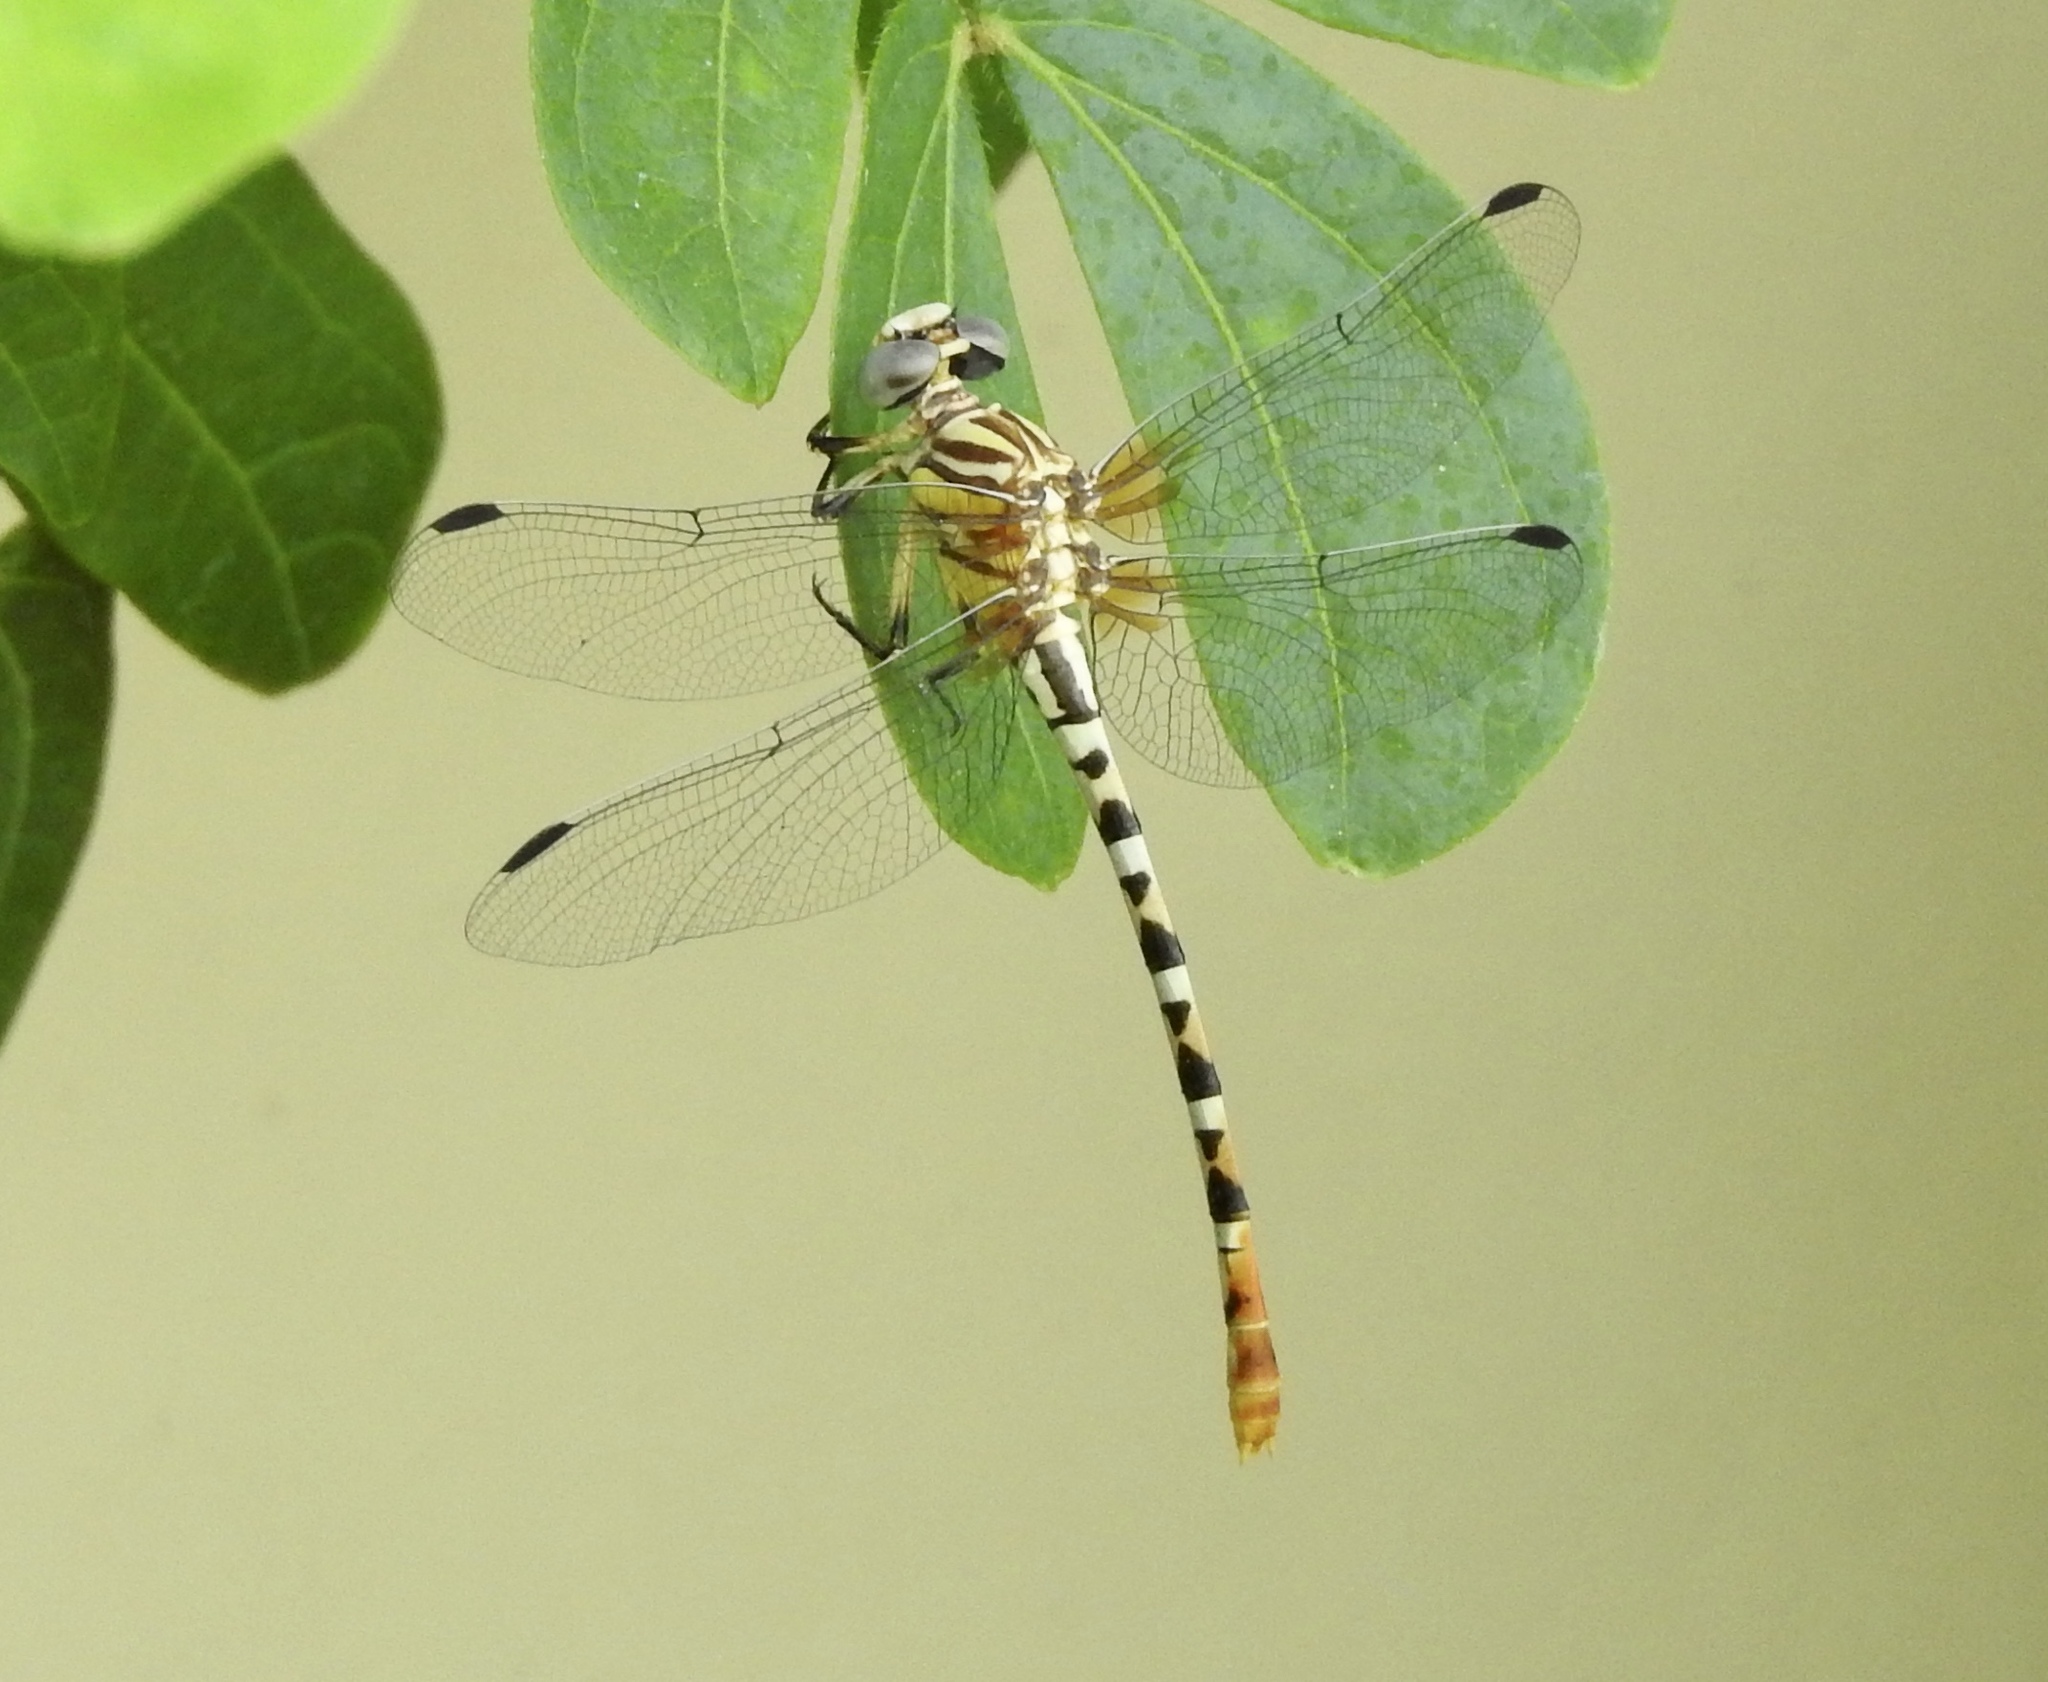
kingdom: Animalia
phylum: Arthropoda
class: Insecta
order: Odonata
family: Gomphidae
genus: Erpetogomphus
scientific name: Erpetogomphus compositus
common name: White-belted ringtail
